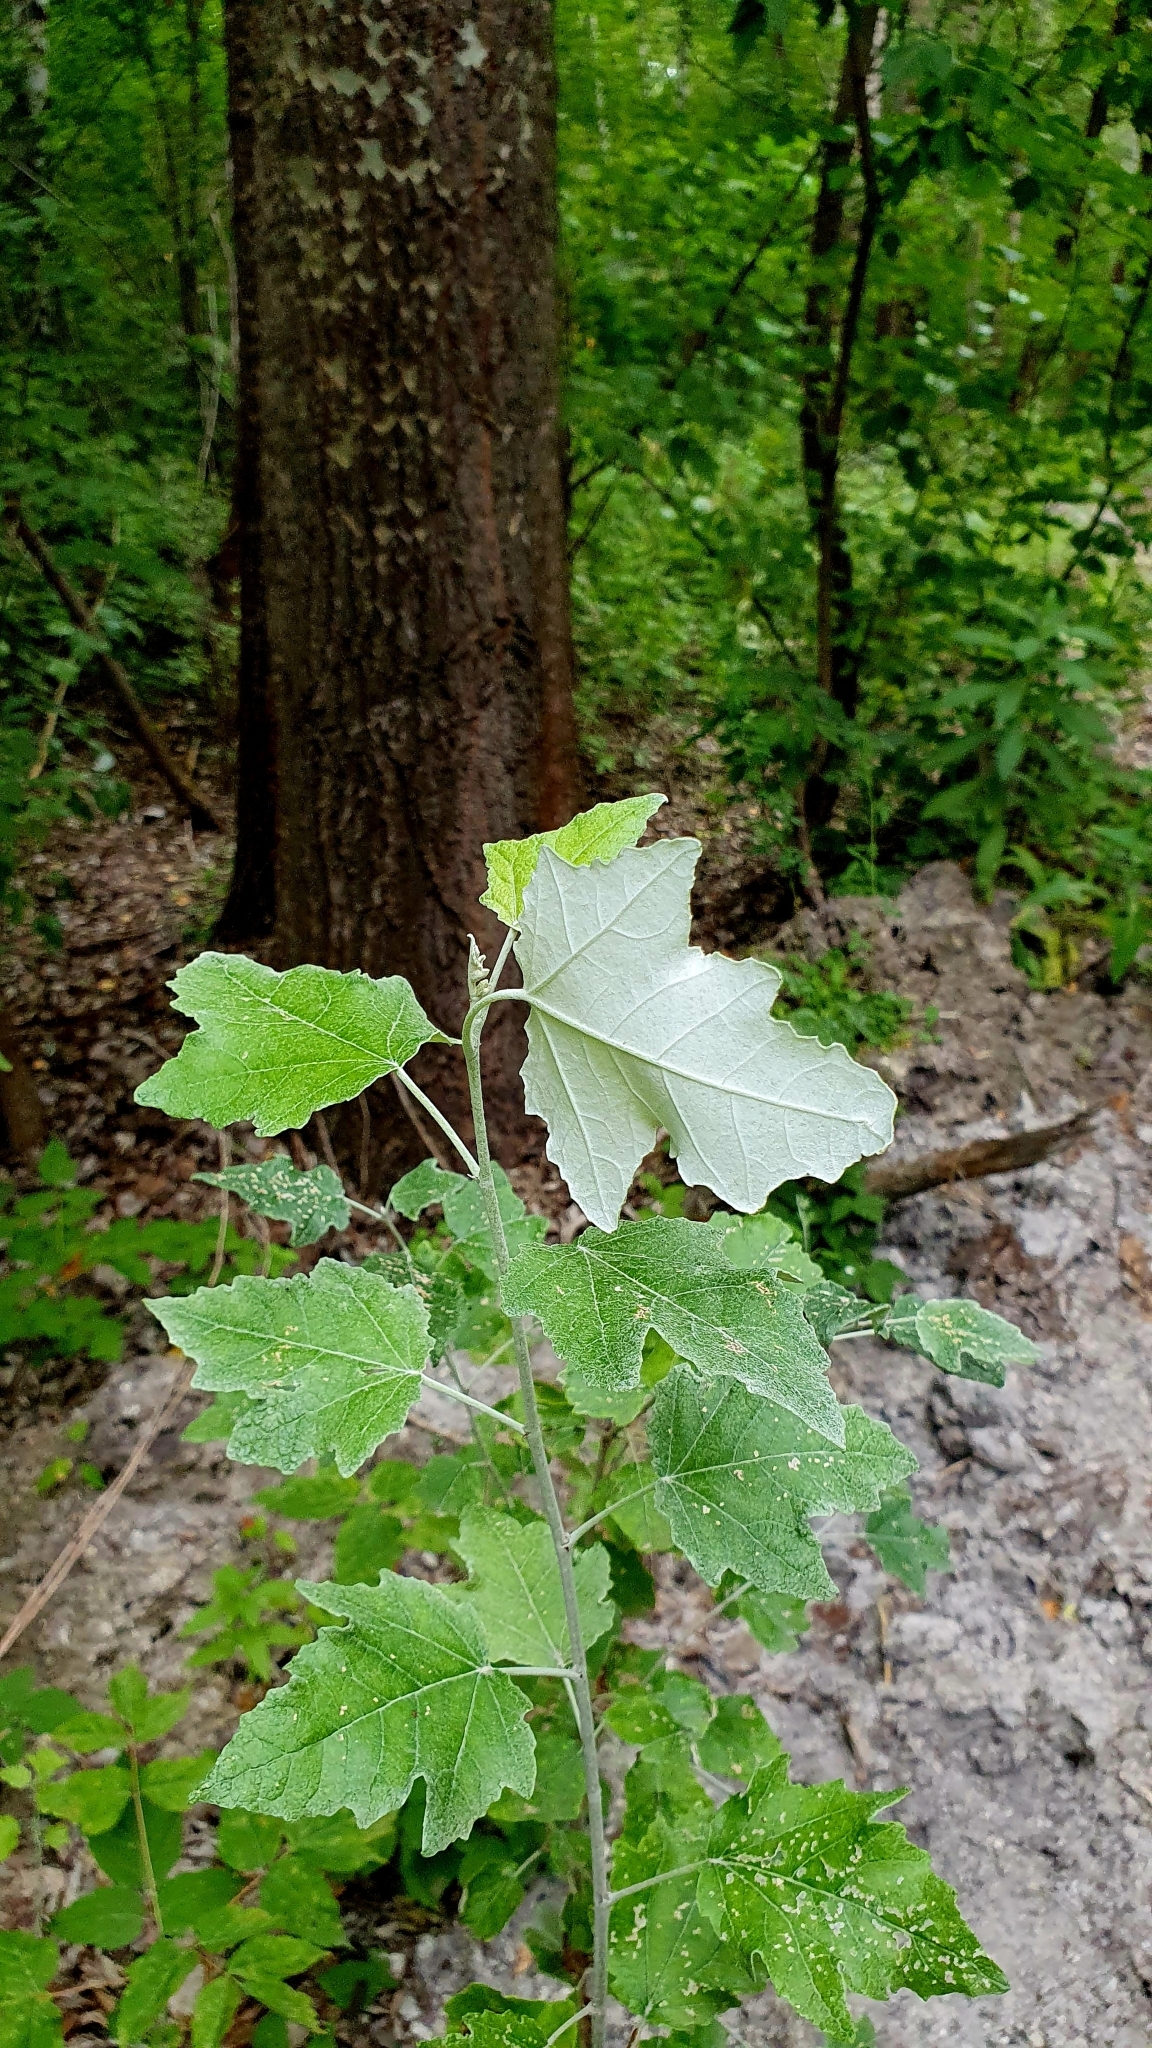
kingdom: Plantae
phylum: Tracheophyta
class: Magnoliopsida
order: Malpighiales
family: Salicaceae
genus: Populus
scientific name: Populus alba
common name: White poplar
